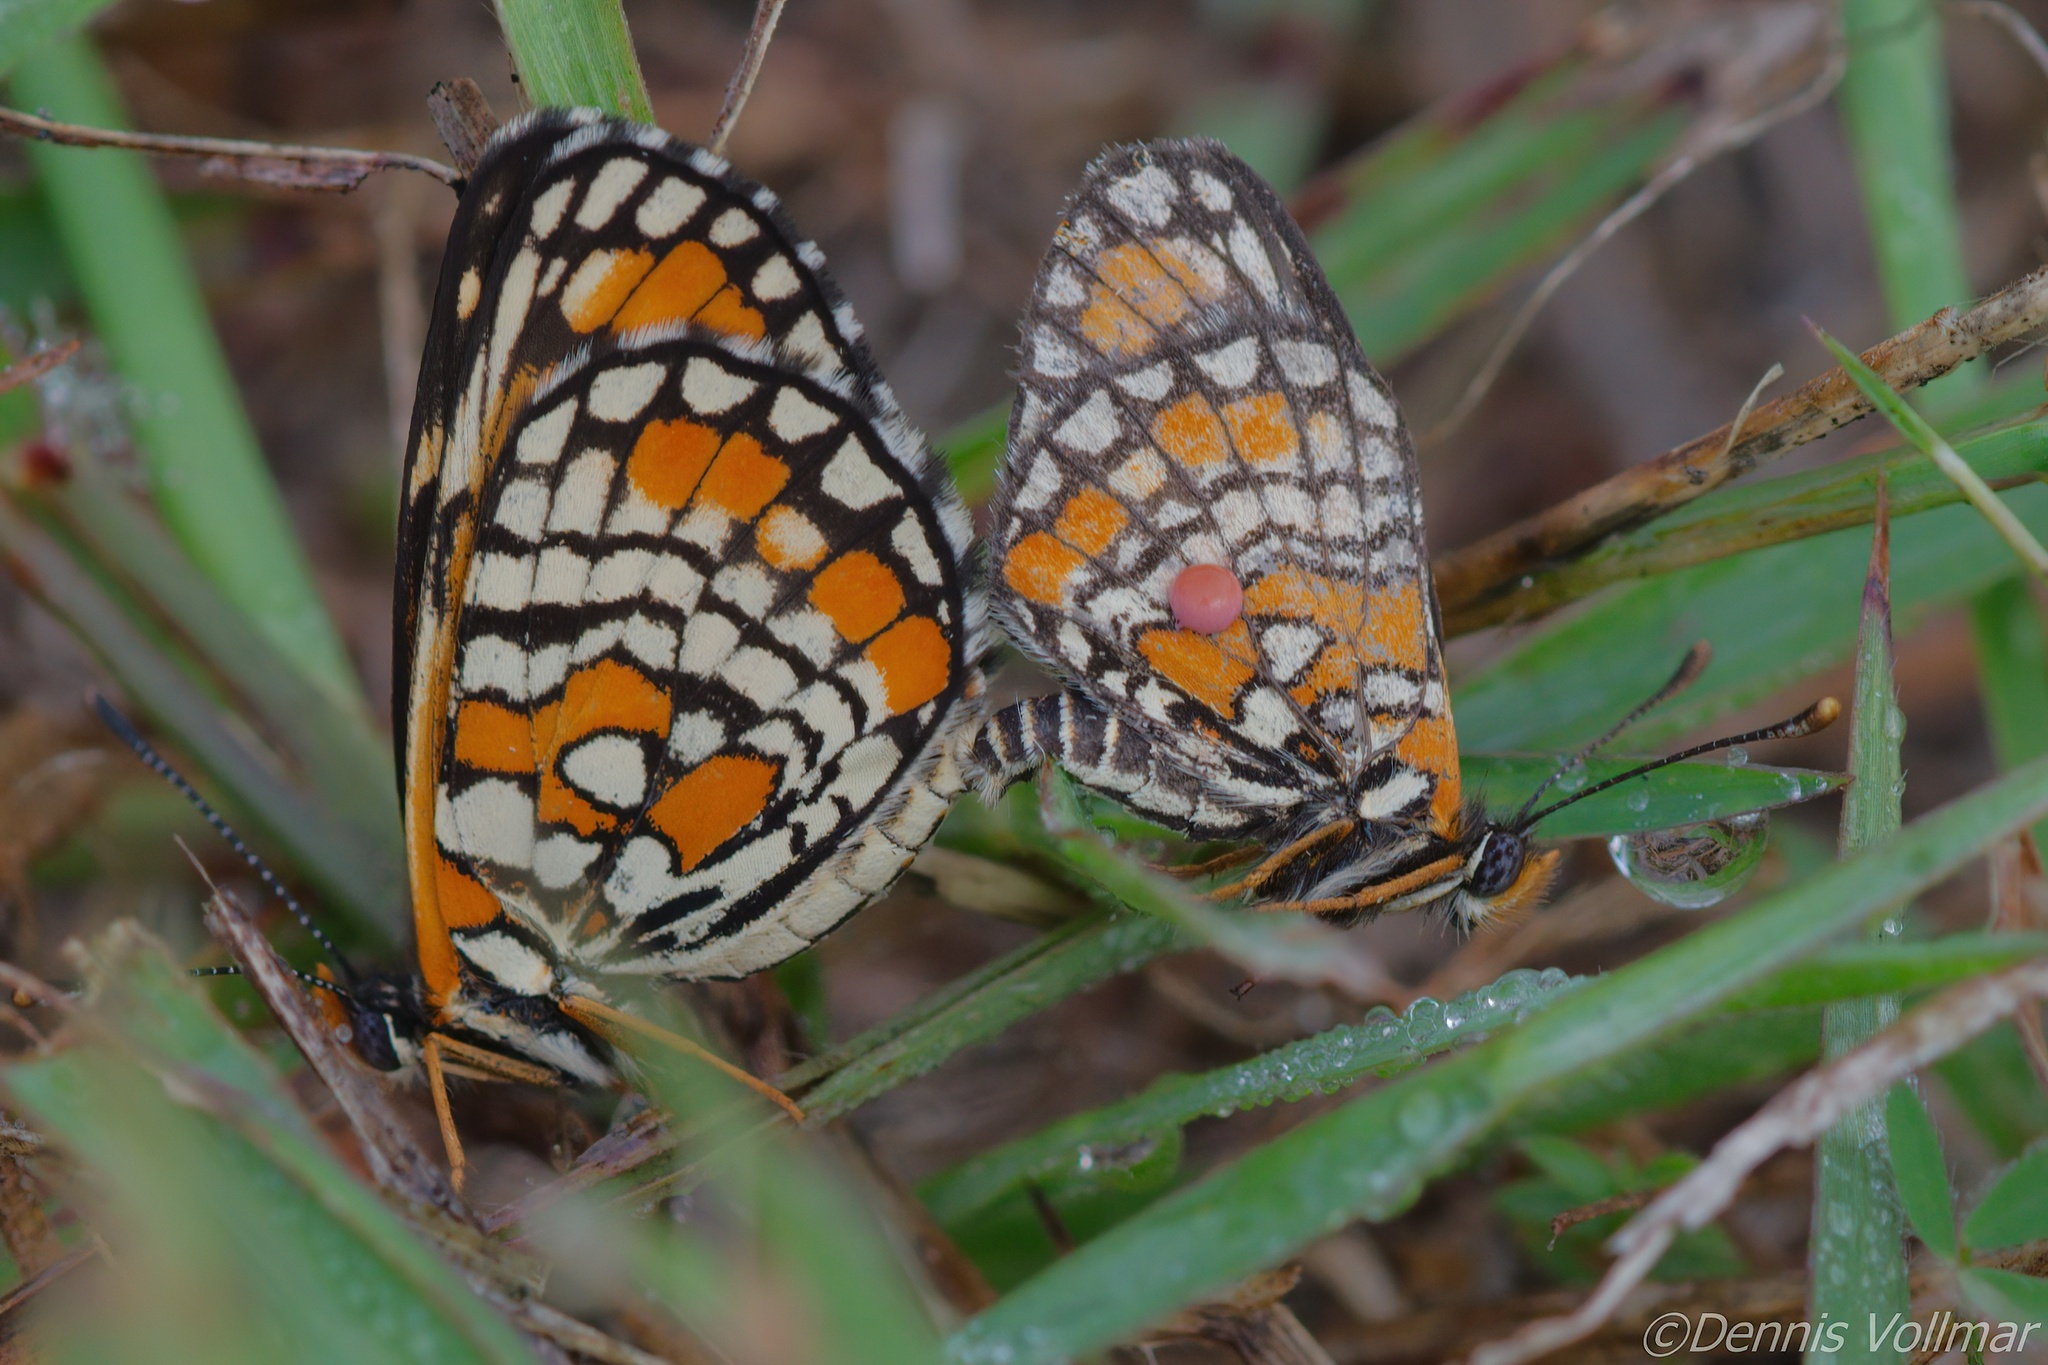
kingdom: Animalia
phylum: Arthropoda
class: Insecta
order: Lepidoptera
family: Nymphalidae
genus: Chlosyne
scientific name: Chlosyne definita
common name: Definite patch
